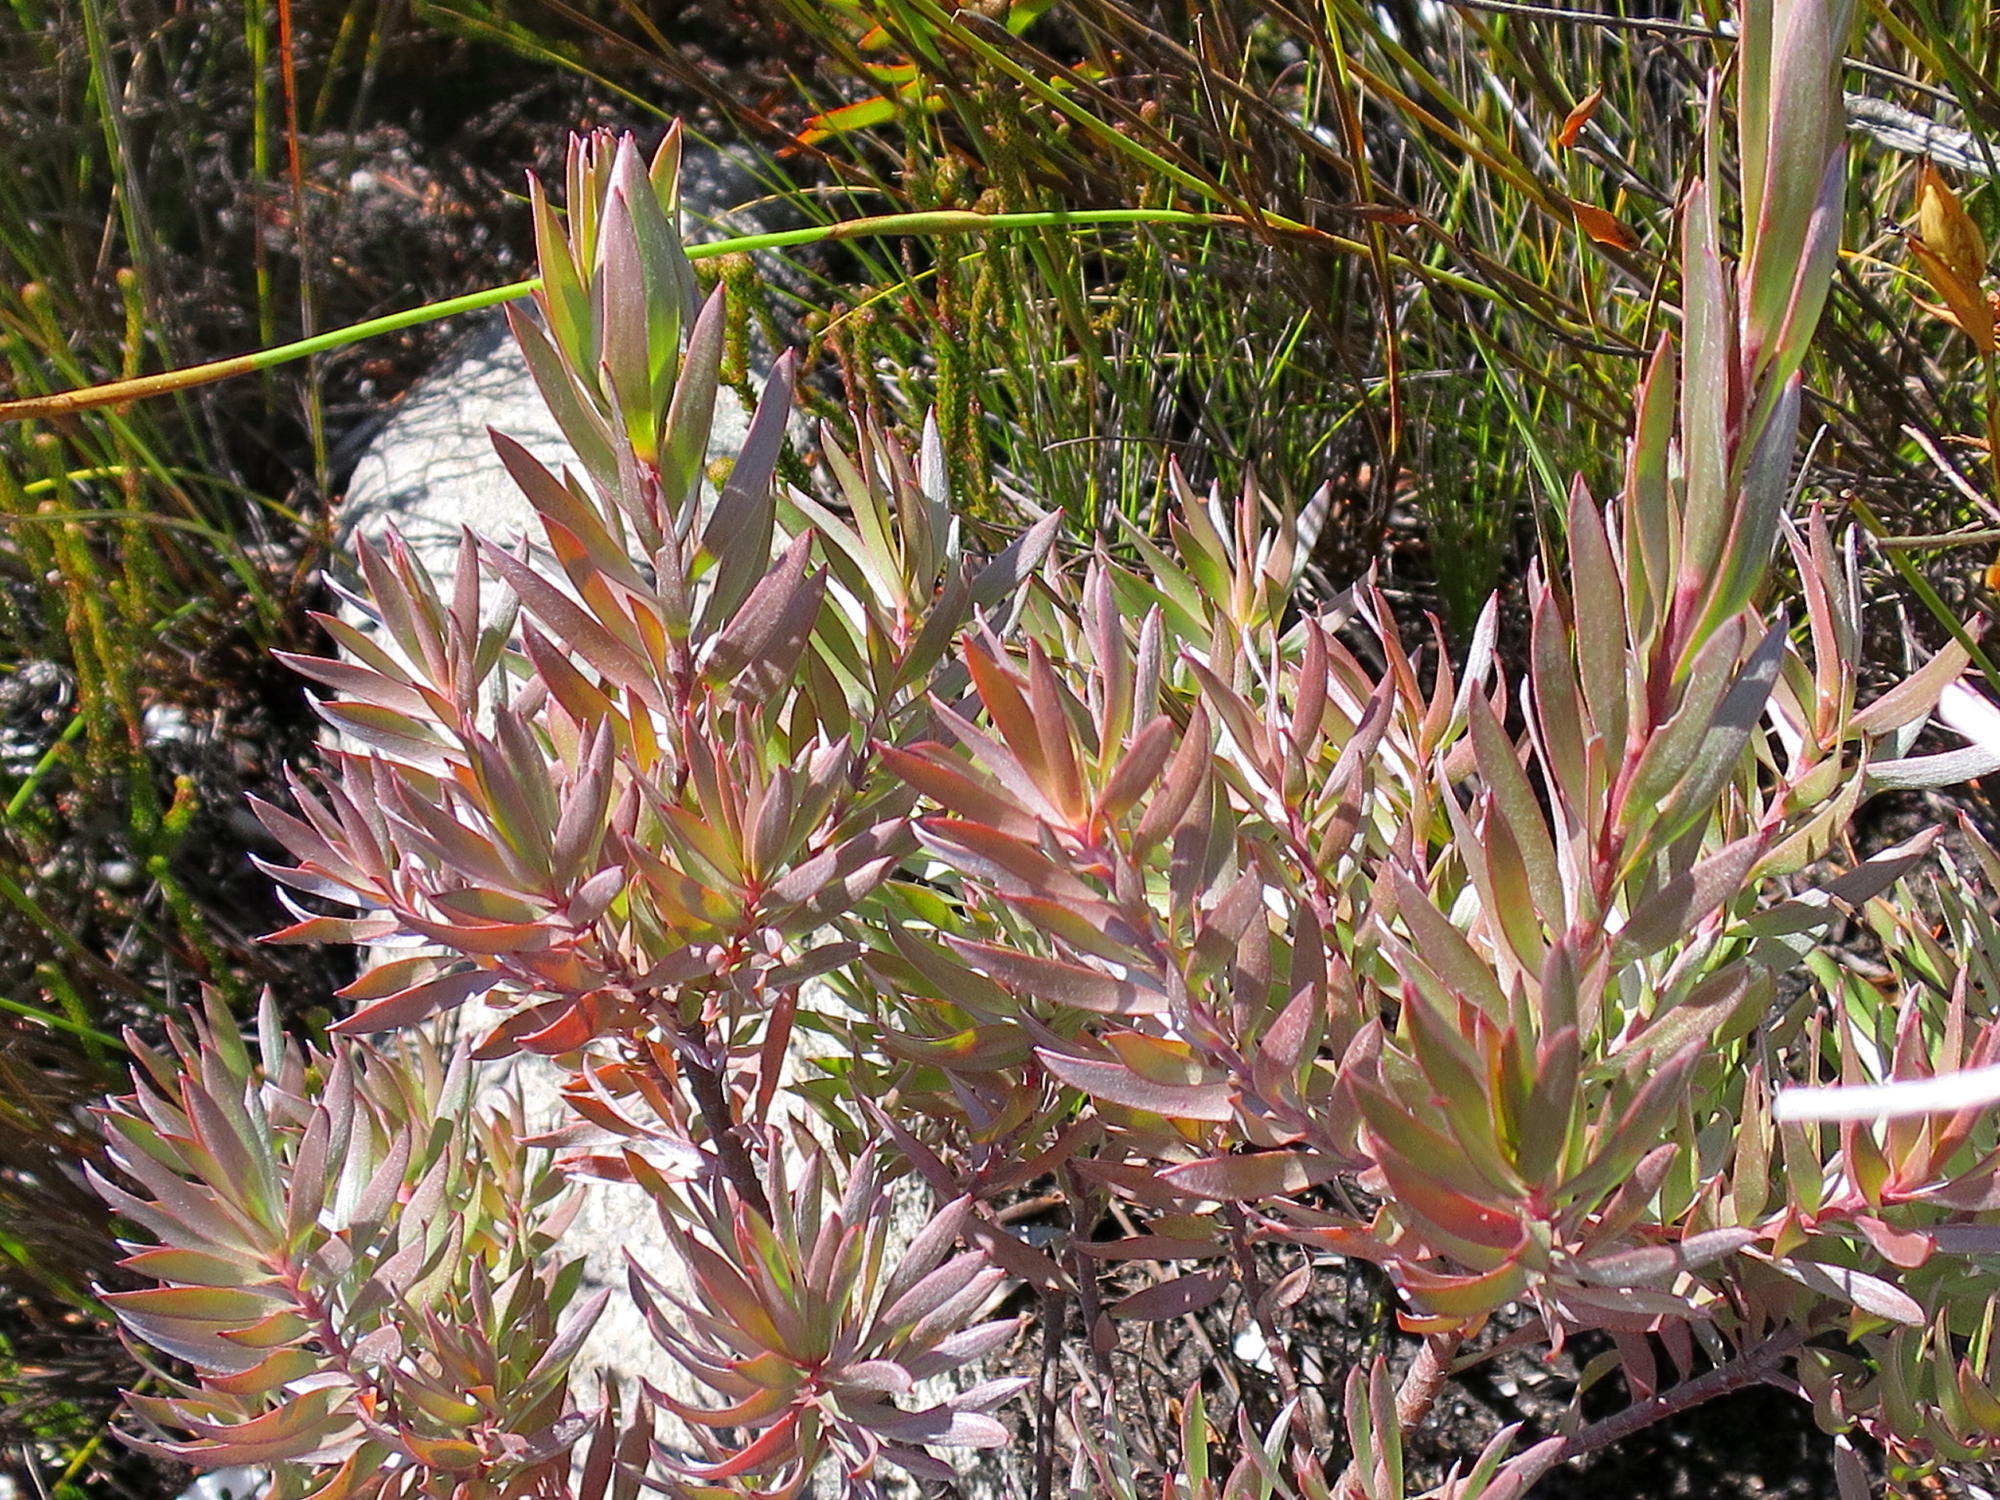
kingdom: Plantae
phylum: Tracheophyta
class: Magnoliopsida
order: Proteales
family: Proteaceae
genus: Leucadendron
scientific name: Leucadendron uliginosum
